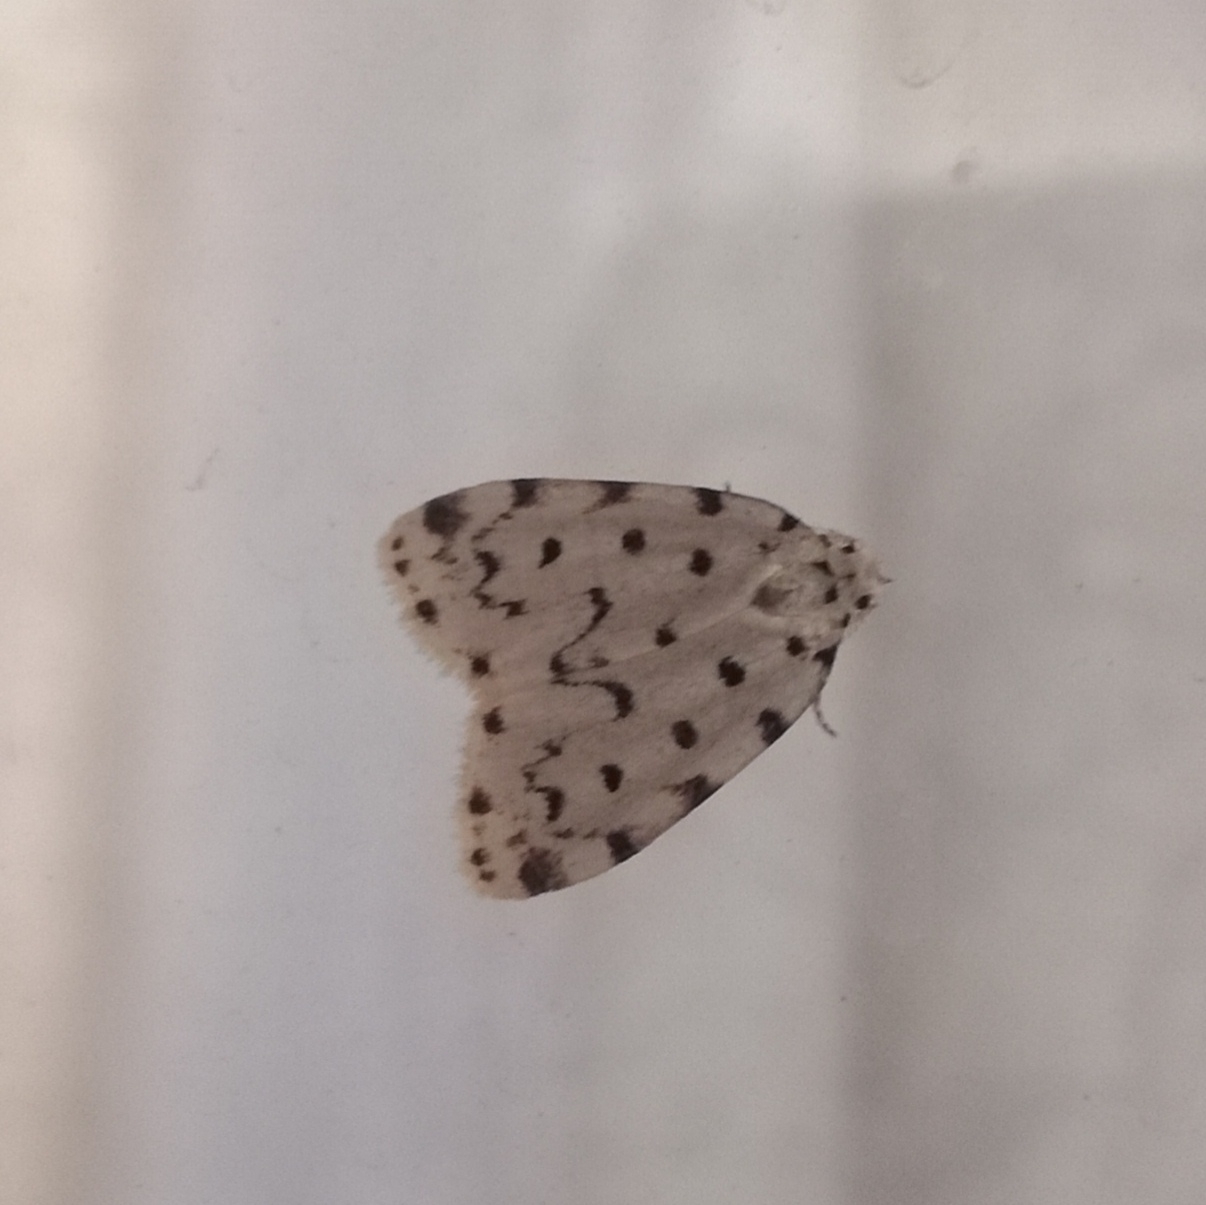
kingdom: Animalia
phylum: Arthropoda
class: Insecta
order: Lepidoptera
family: Erebidae
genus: Siccia
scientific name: Siccia caffra
